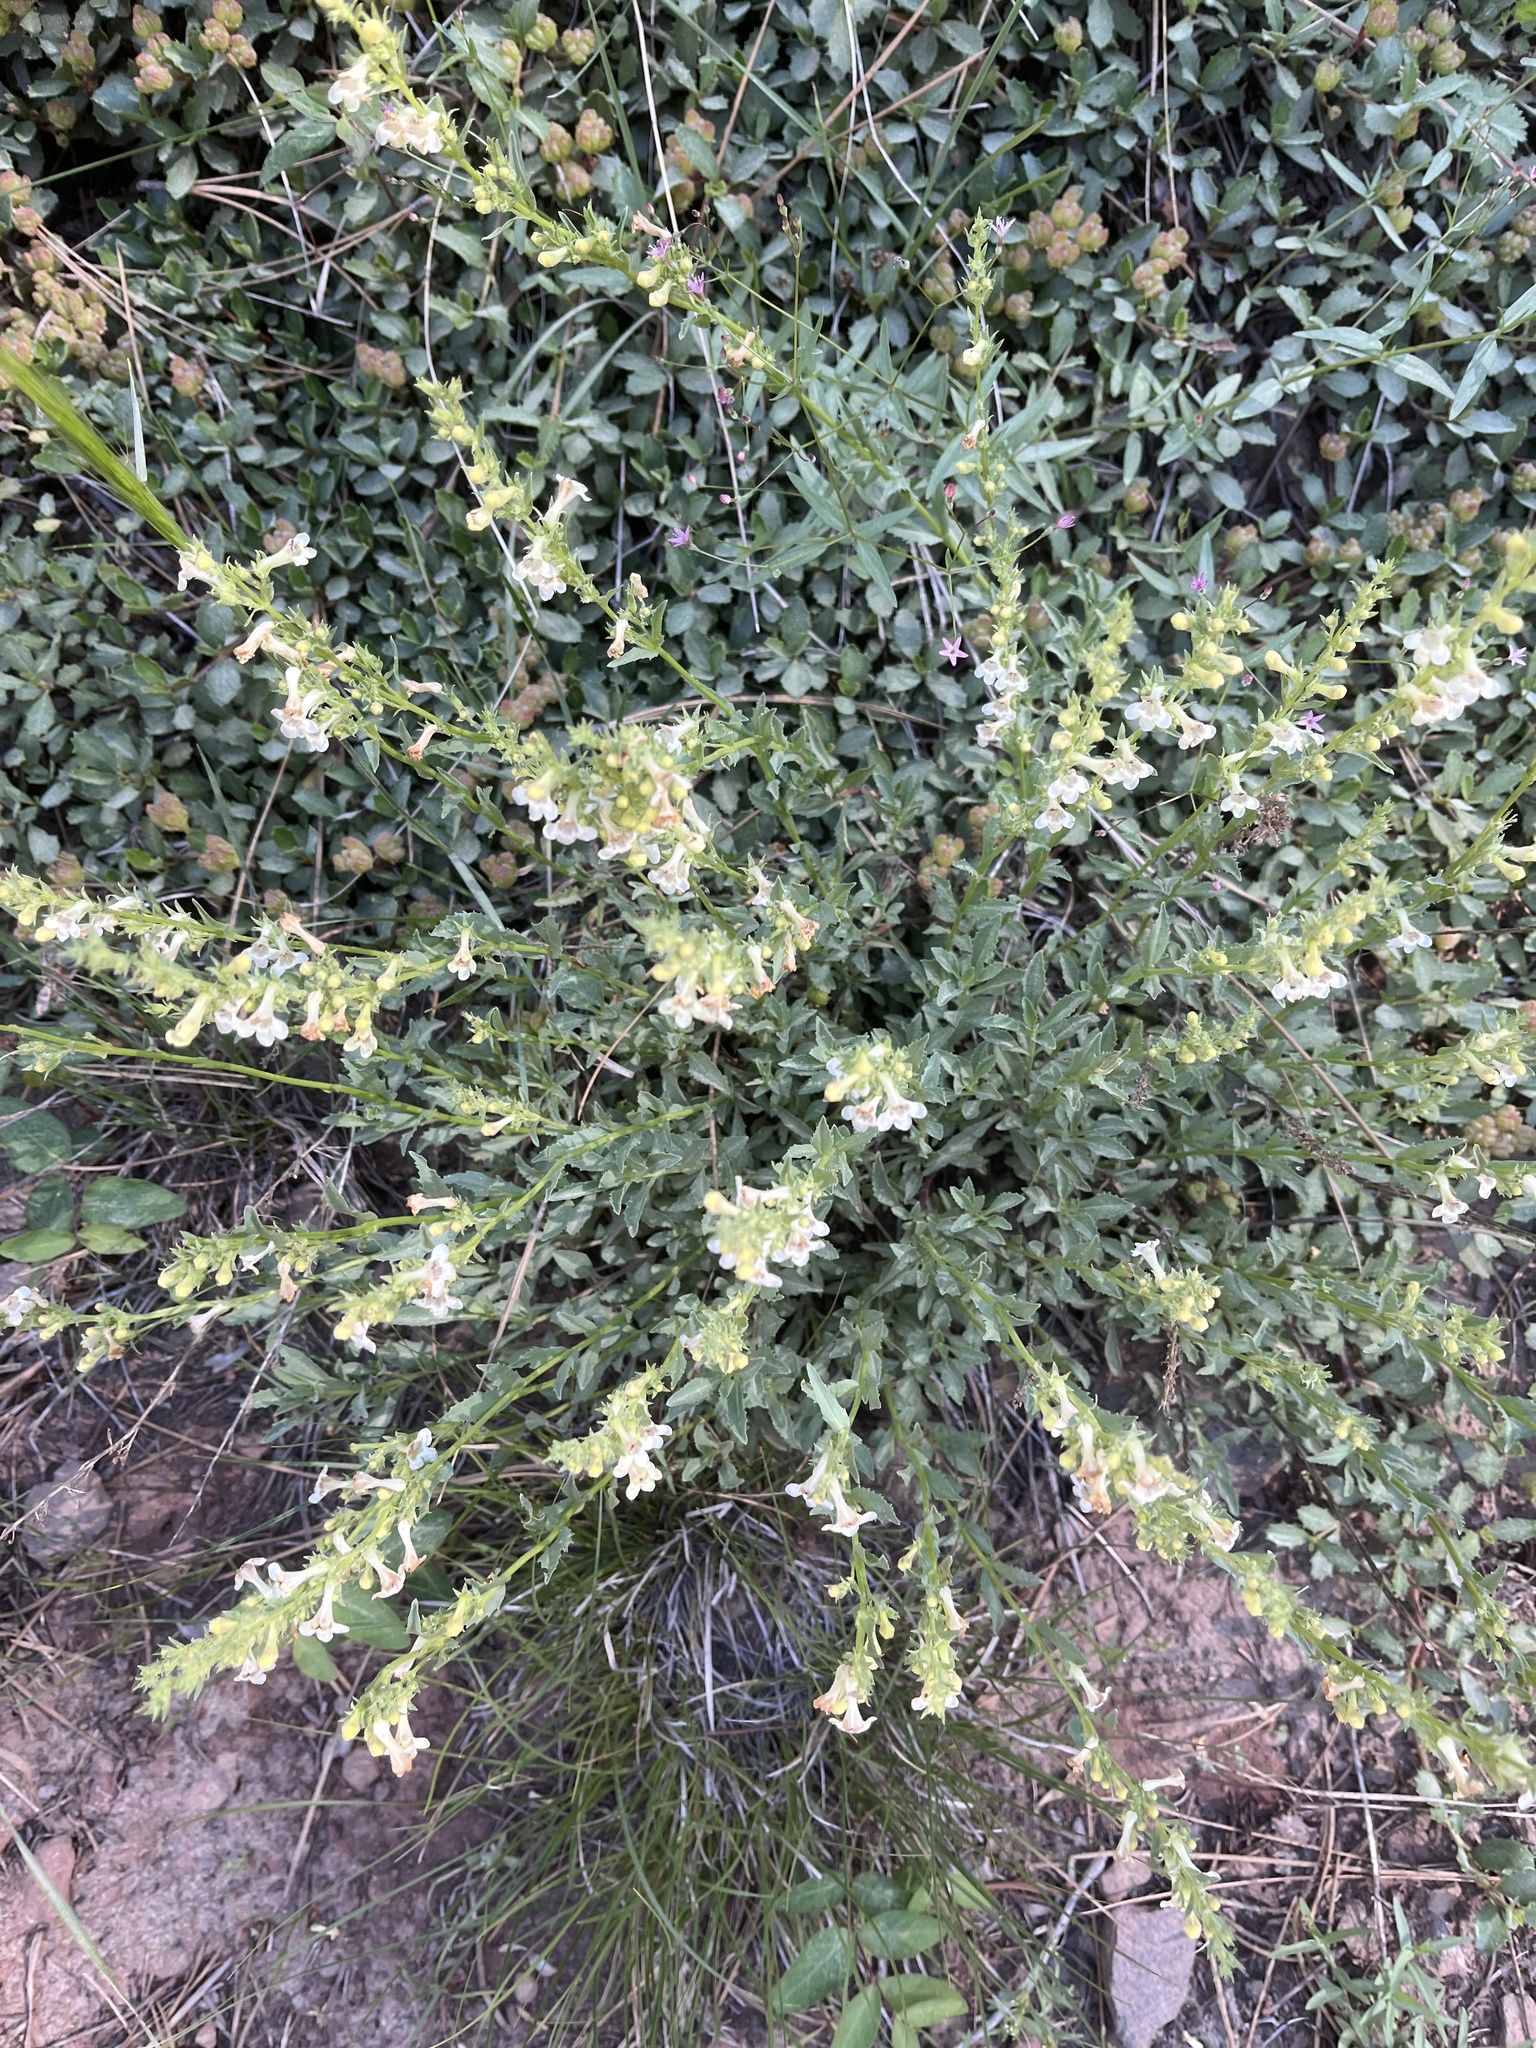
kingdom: Plantae
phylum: Tracheophyta
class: Magnoliopsida
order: Lamiales
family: Plantaginaceae
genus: Penstemon
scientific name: Penstemon deustus
